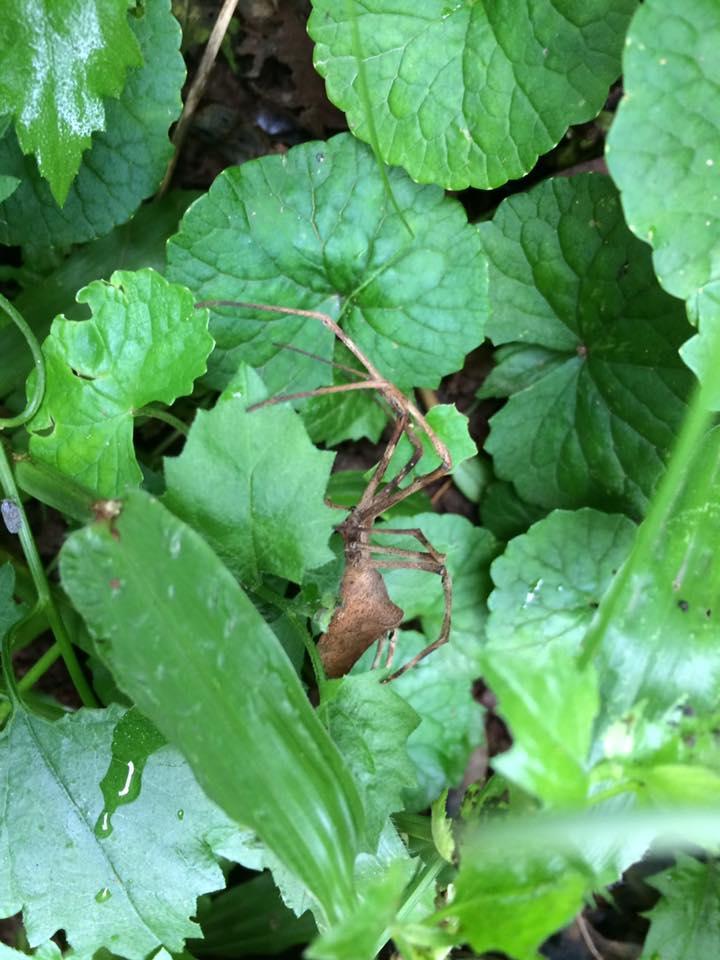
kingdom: Animalia
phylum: Arthropoda
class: Arachnida
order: Araneae
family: Deinopidae
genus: Deinopis
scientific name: Deinopis anchietae
